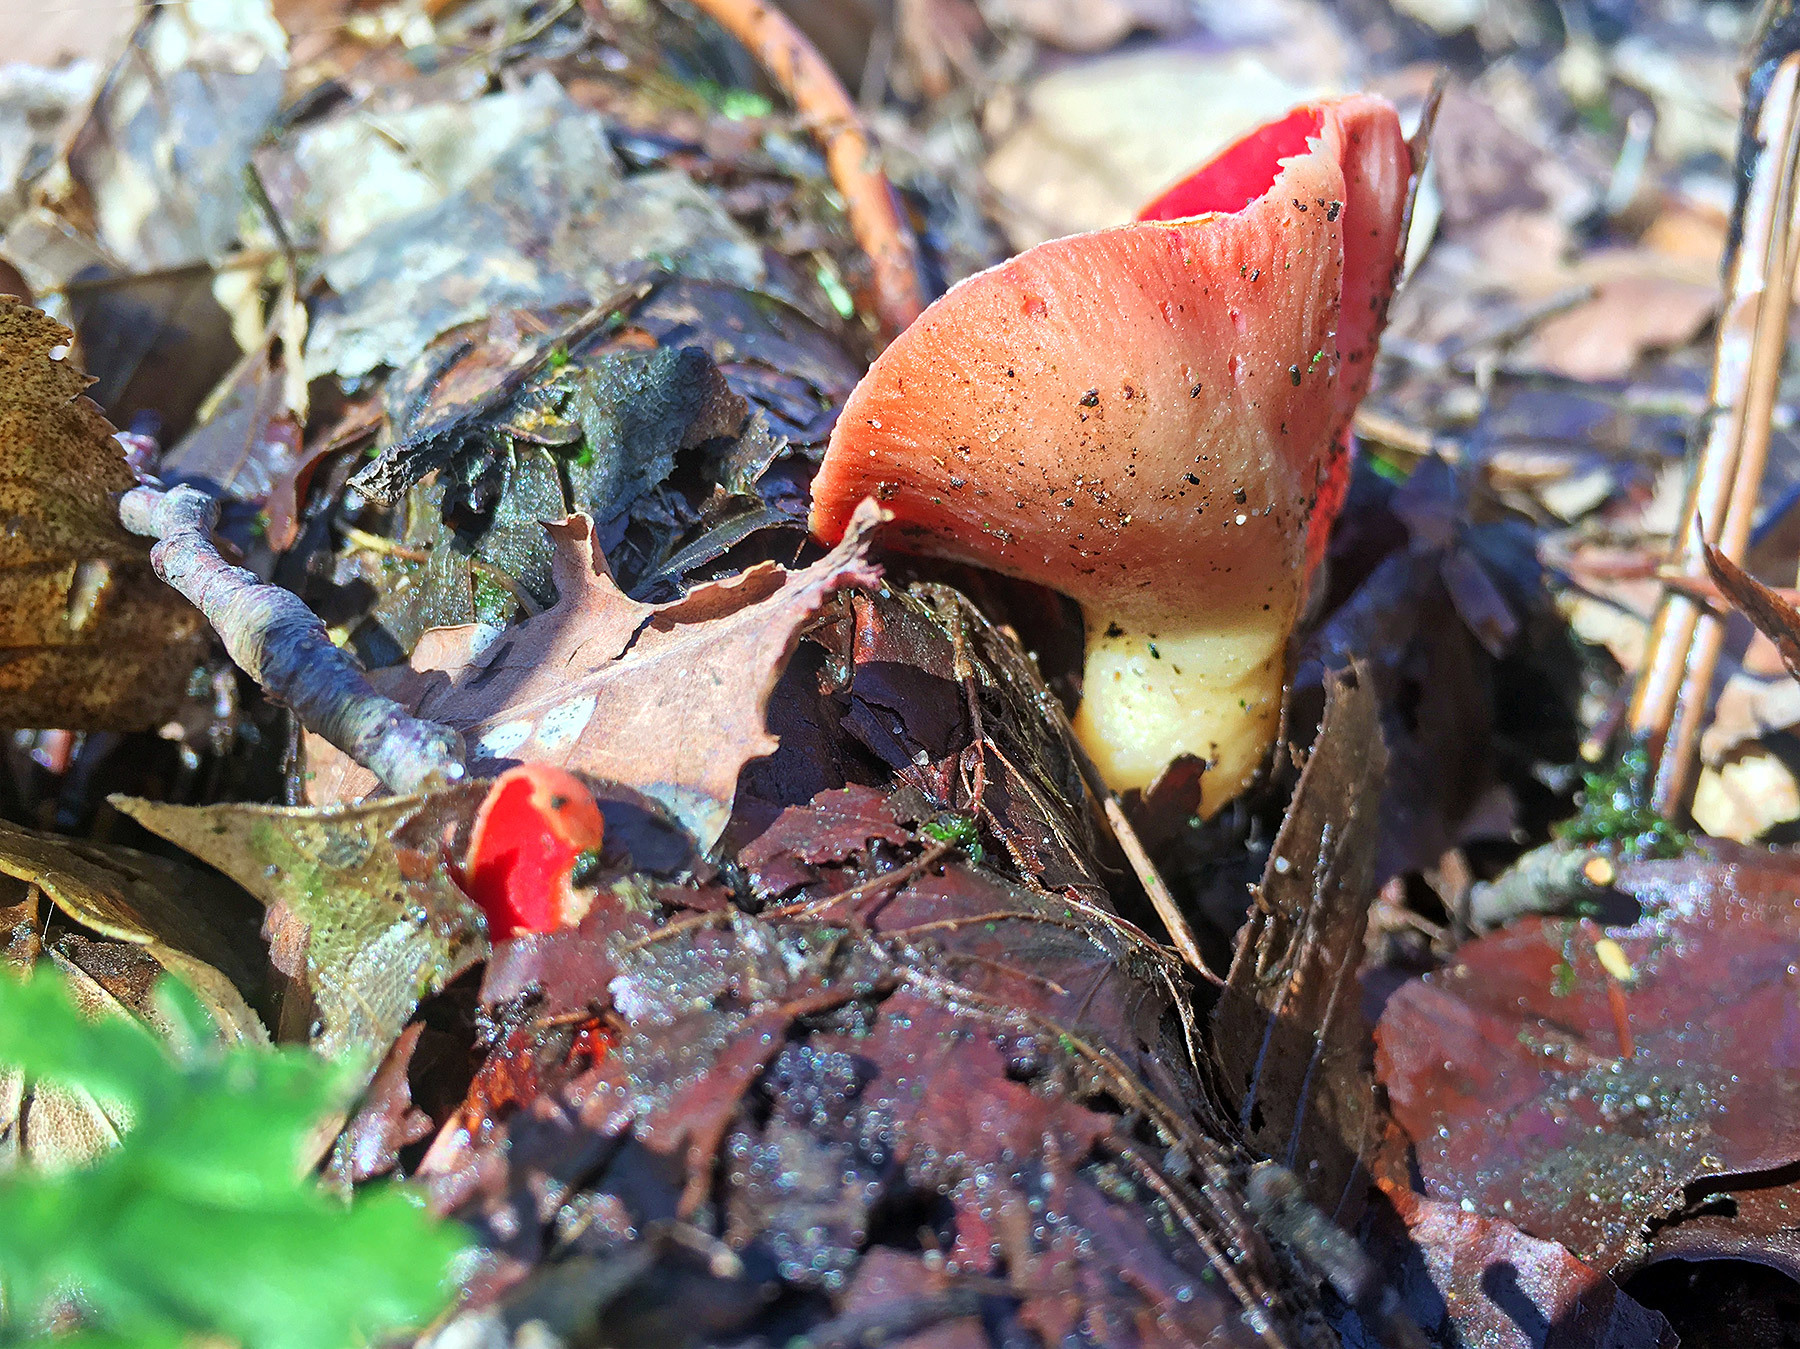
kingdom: Fungi
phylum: Ascomycota
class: Pezizomycetes
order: Pezizales
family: Sarcoscyphaceae
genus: Sarcoscypha
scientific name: Sarcoscypha austriaca
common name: Scarlet elfcup
